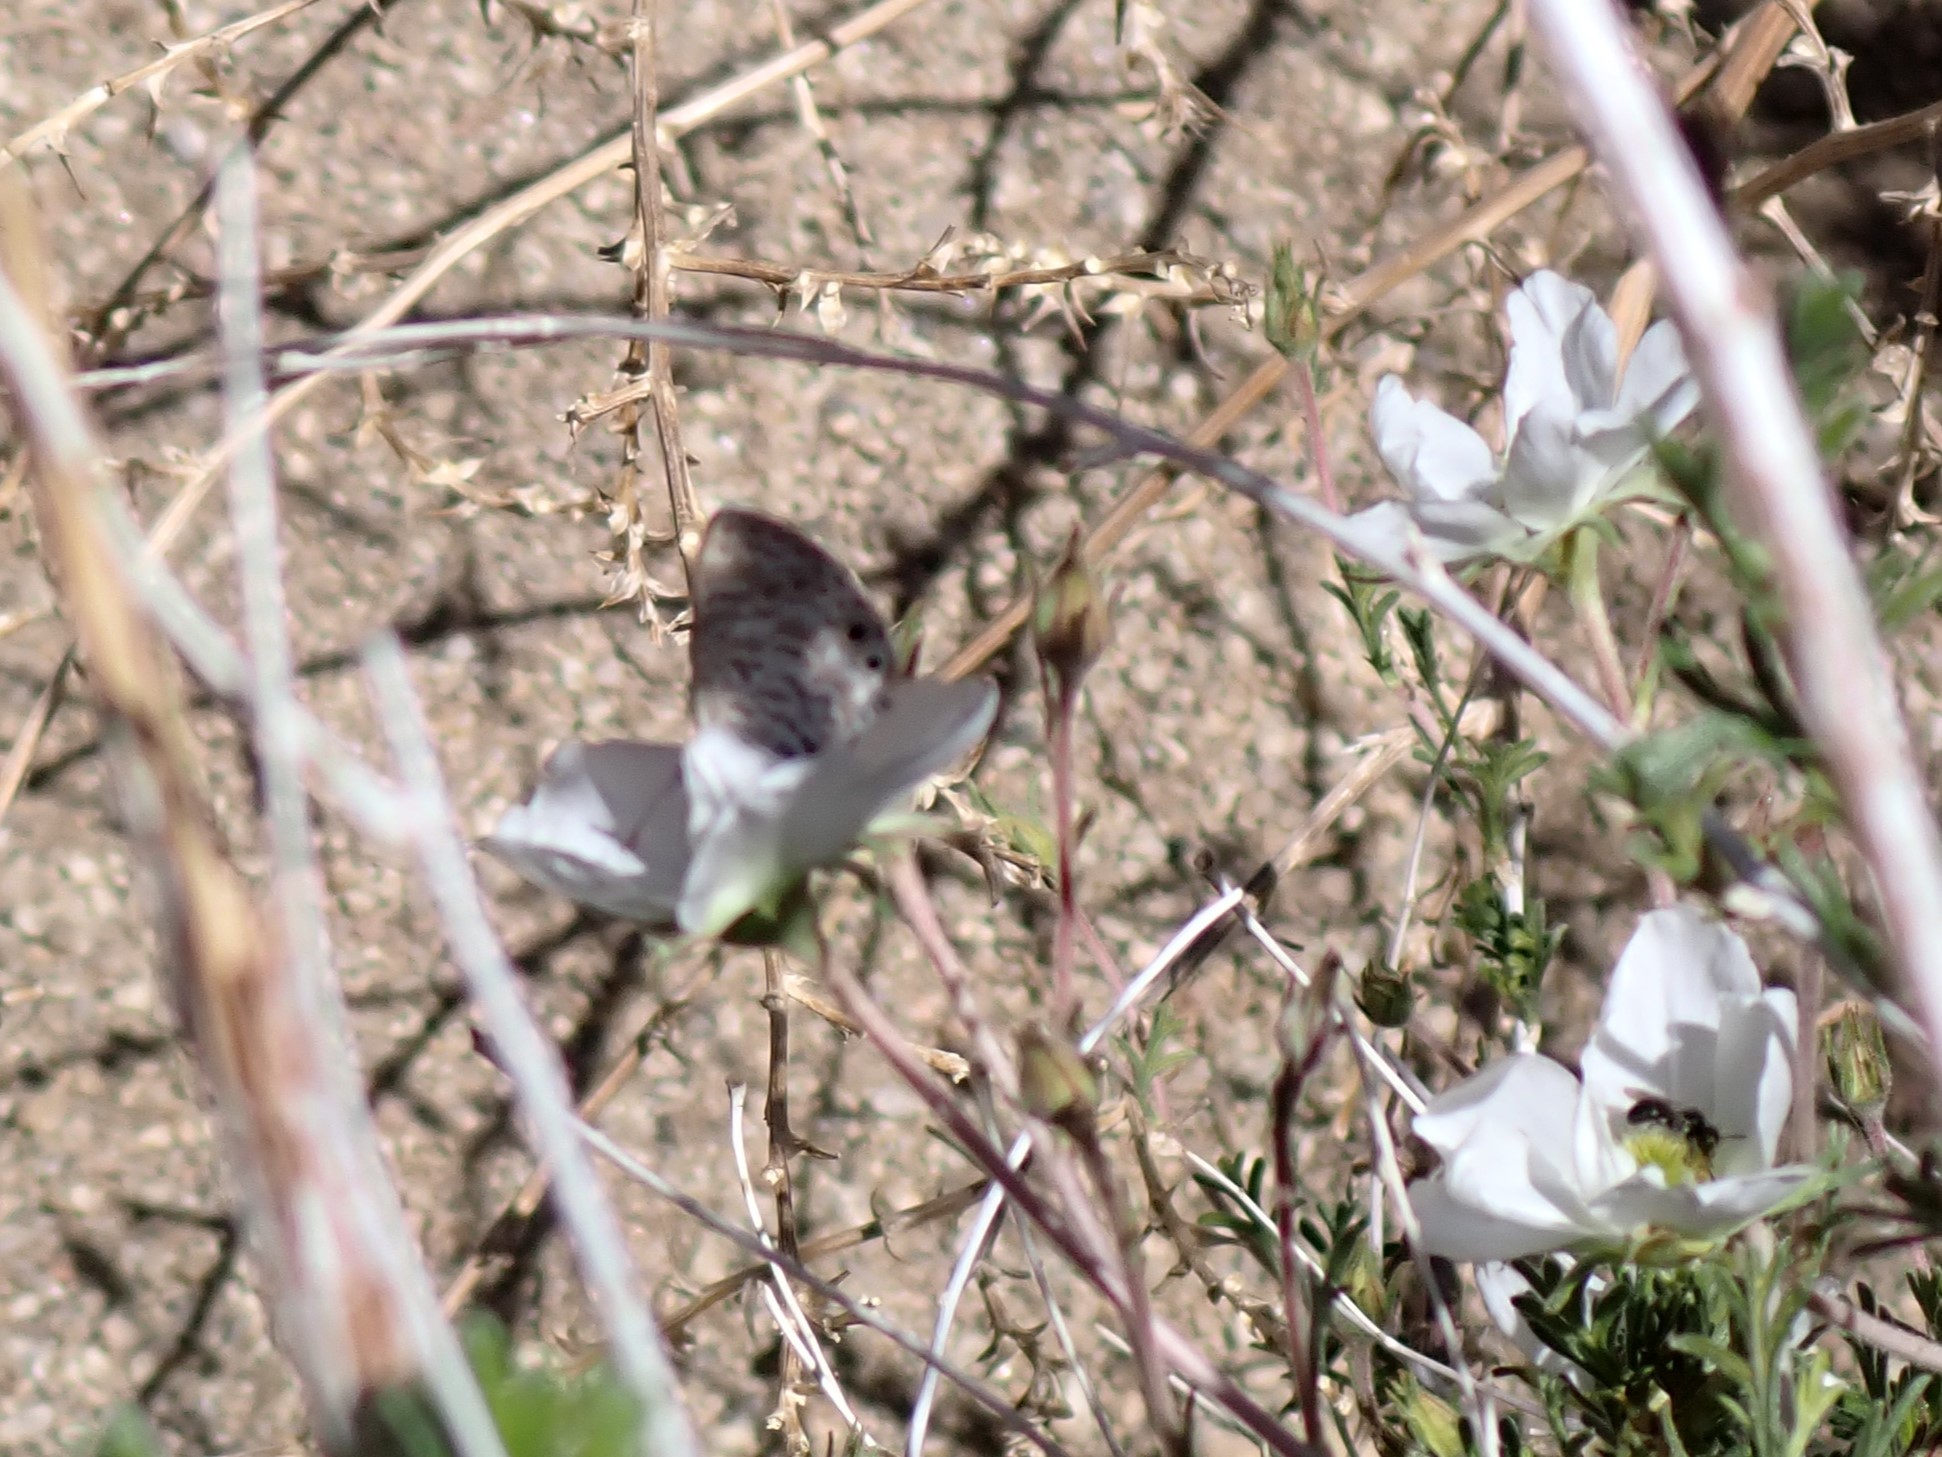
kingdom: Animalia
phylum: Arthropoda
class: Insecta
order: Lepidoptera
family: Lycaenidae
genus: Leptotes
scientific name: Leptotes marina
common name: Marine blue
